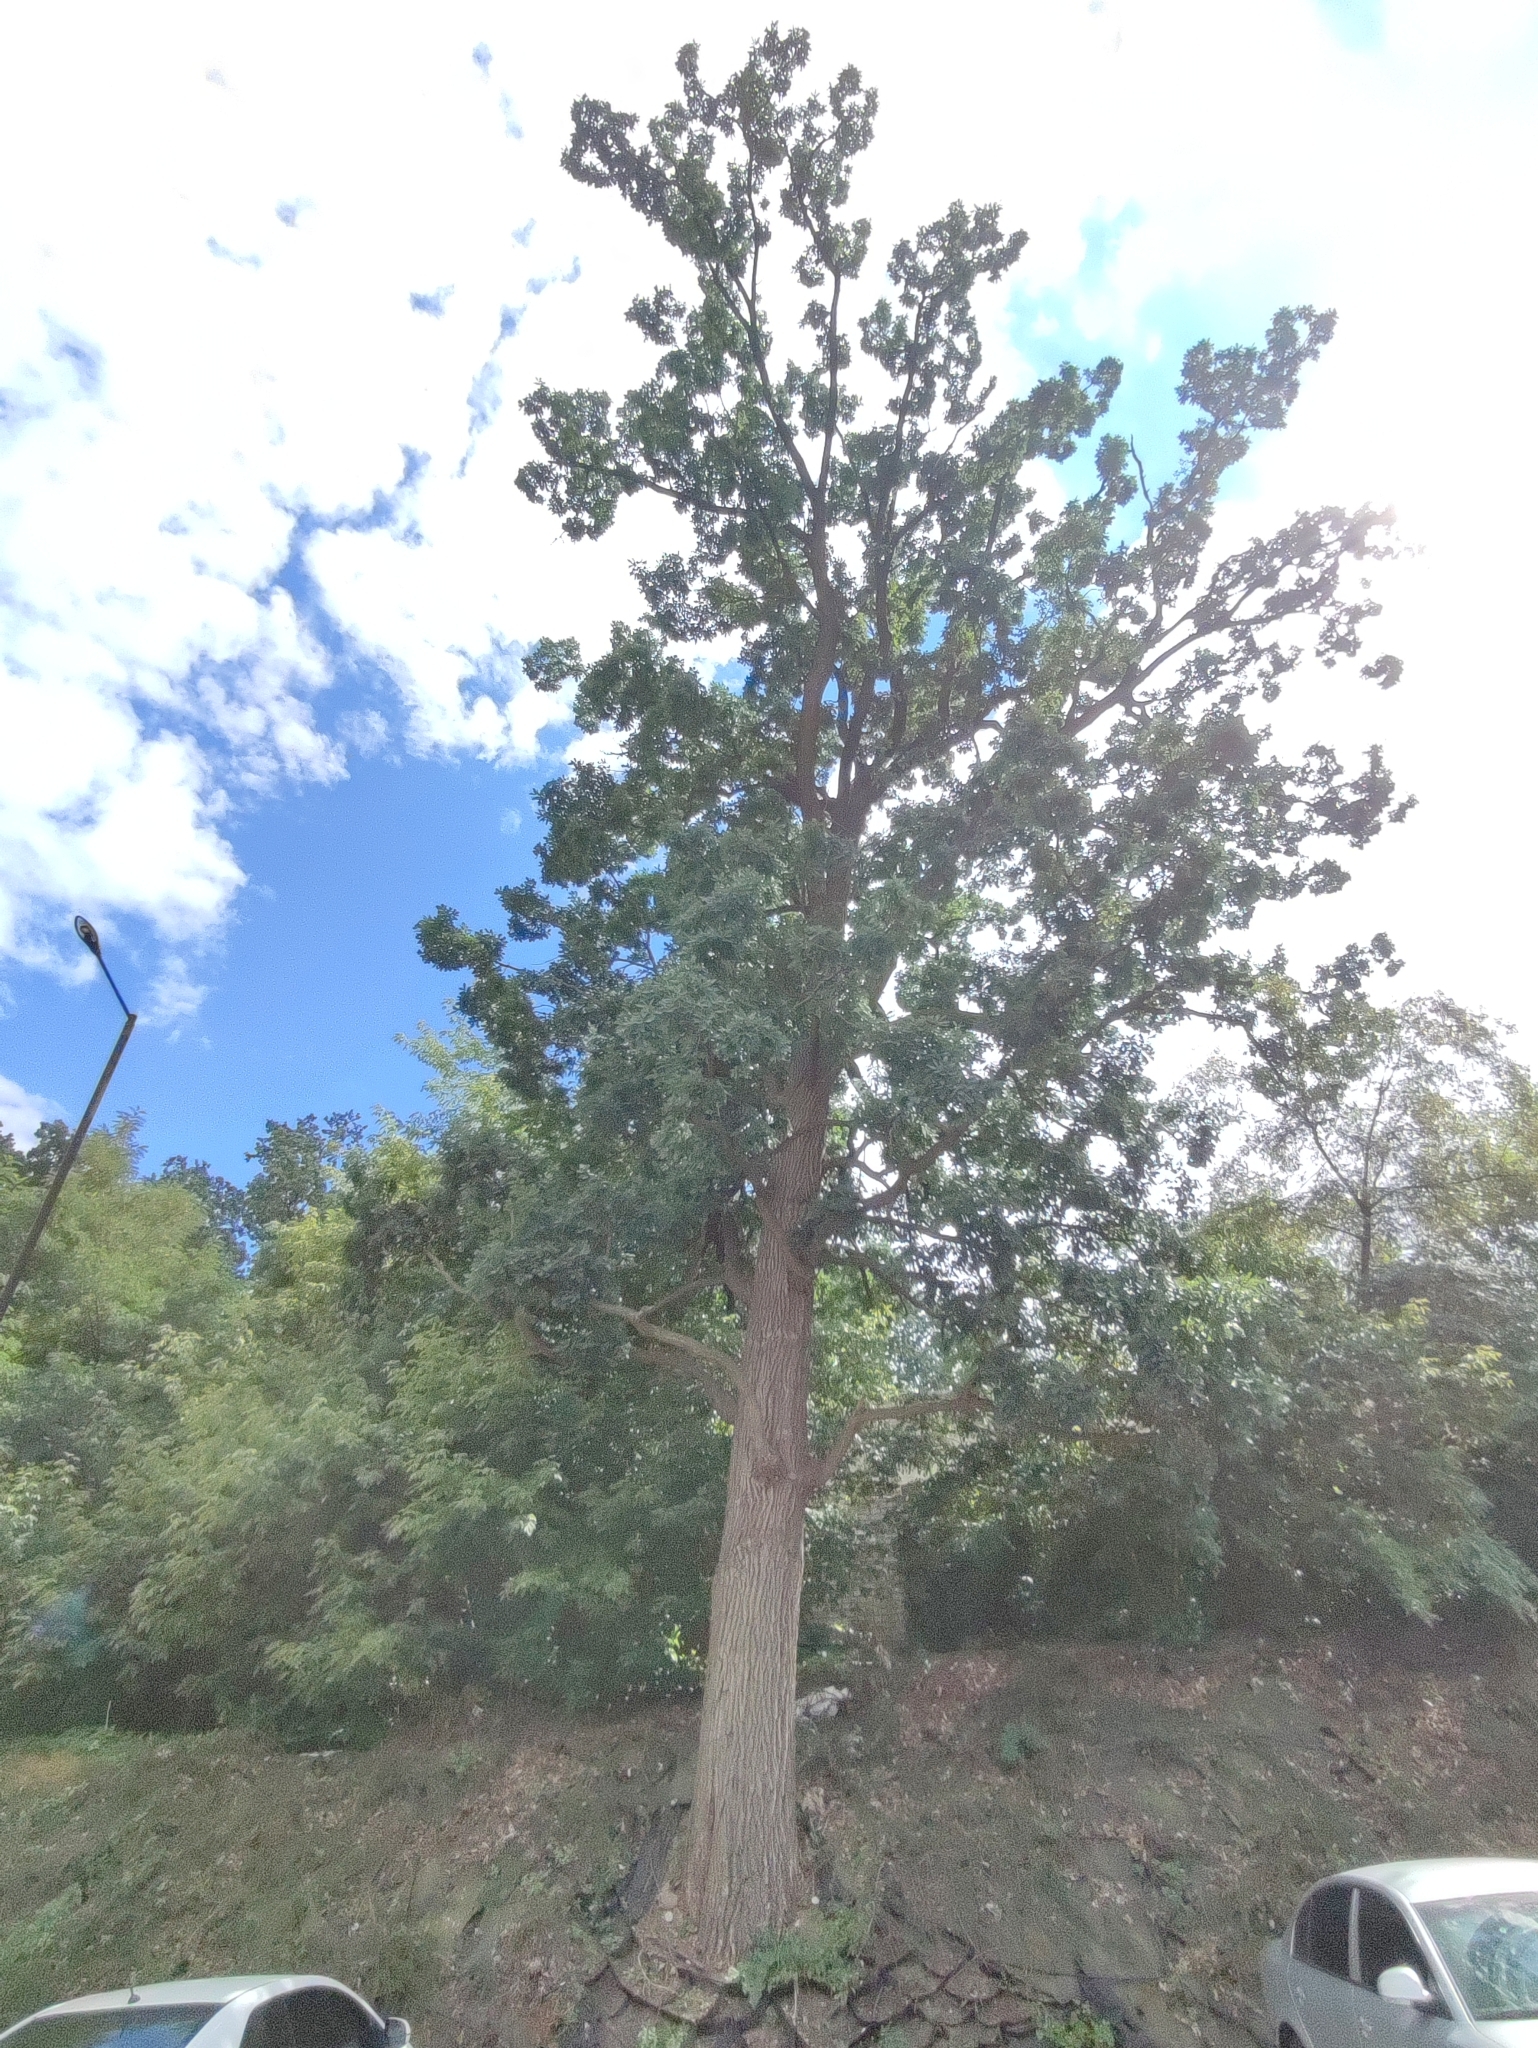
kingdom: Plantae
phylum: Tracheophyta
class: Magnoliopsida
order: Fagales
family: Fagaceae
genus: Quercus
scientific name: Quercus robur
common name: Pedunculate oak
